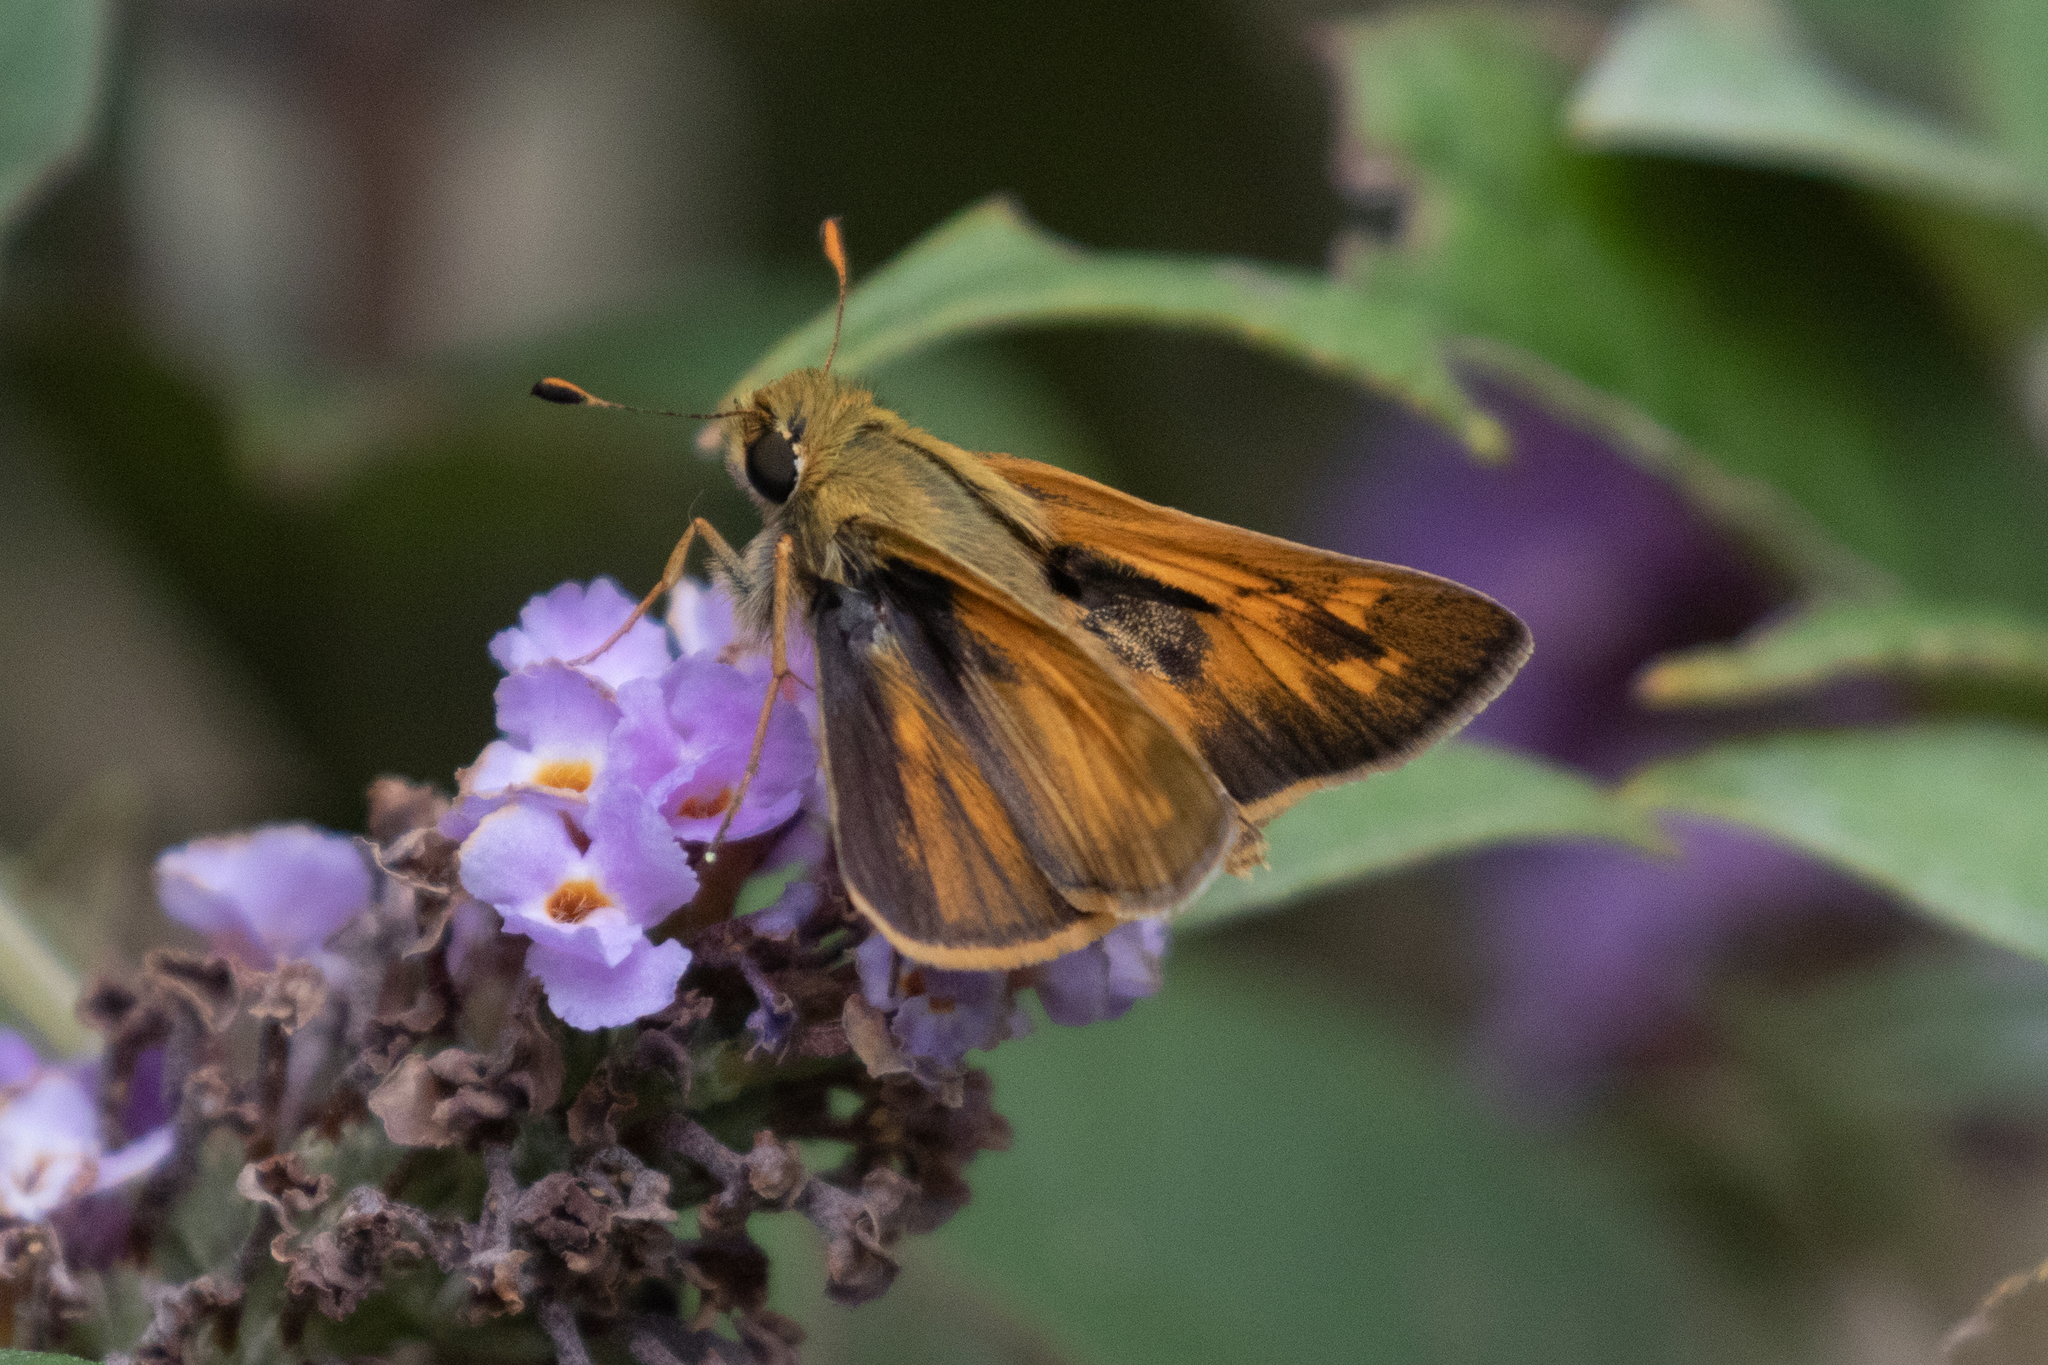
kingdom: Animalia
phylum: Arthropoda
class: Insecta
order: Lepidoptera
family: Hesperiidae
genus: Atalopedes
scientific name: Atalopedes
